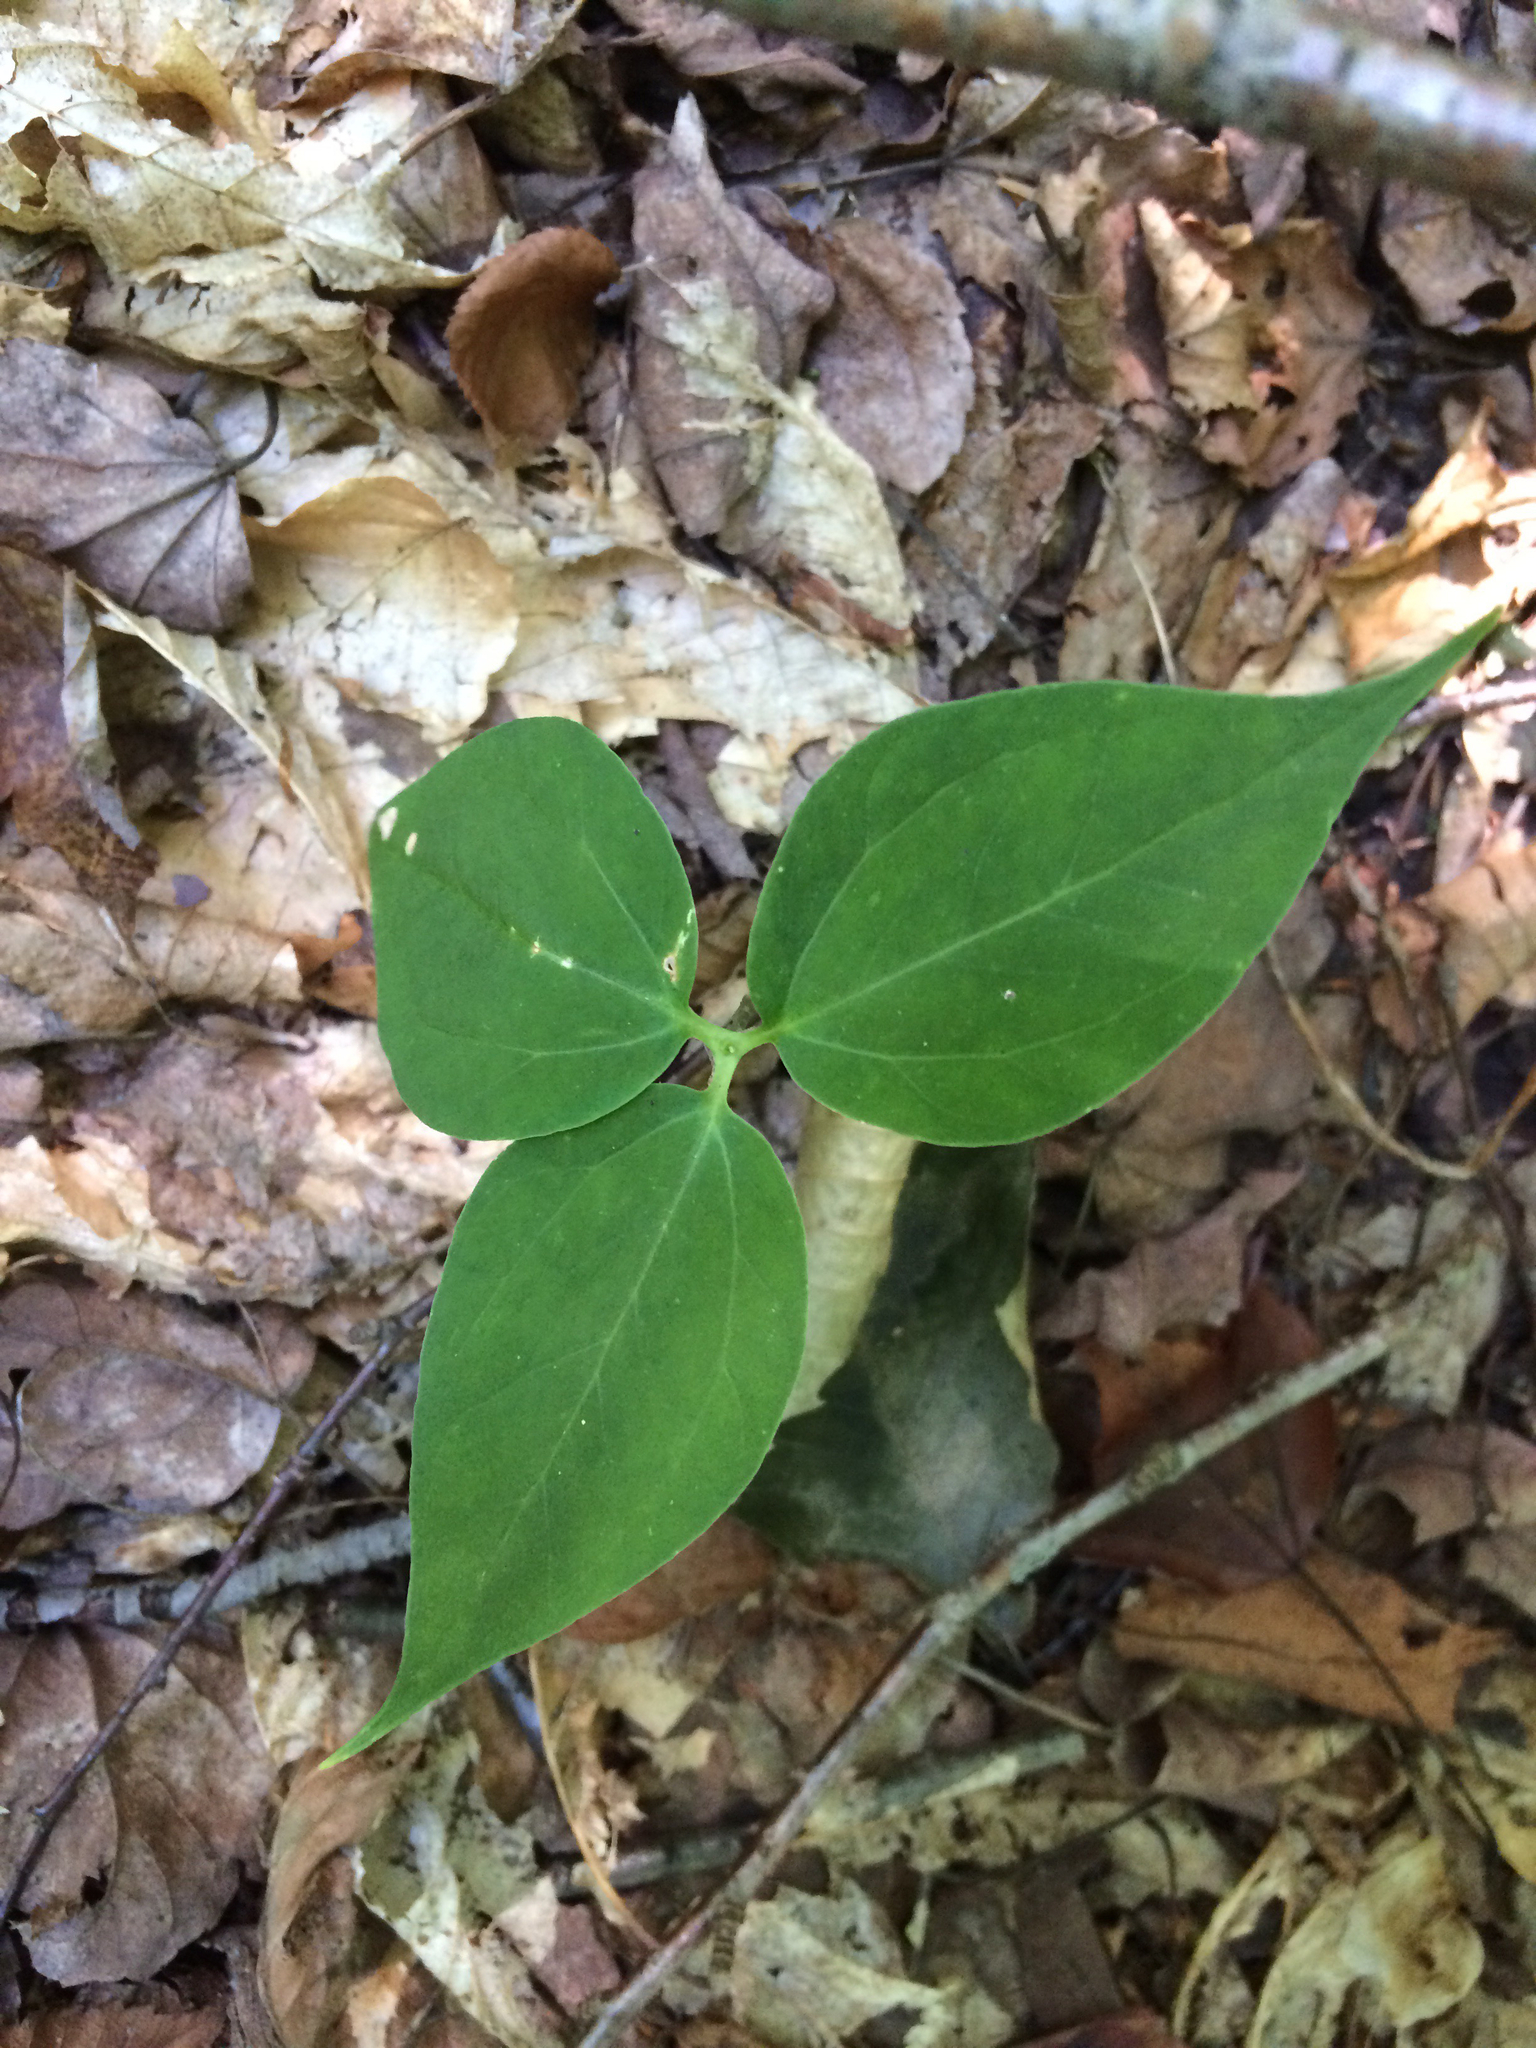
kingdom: Plantae
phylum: Tracheophyta
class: Liliopsida
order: Liliales
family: Melanthiaceae
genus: Trillium
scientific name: Trillium undulatum
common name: Paint trillium
